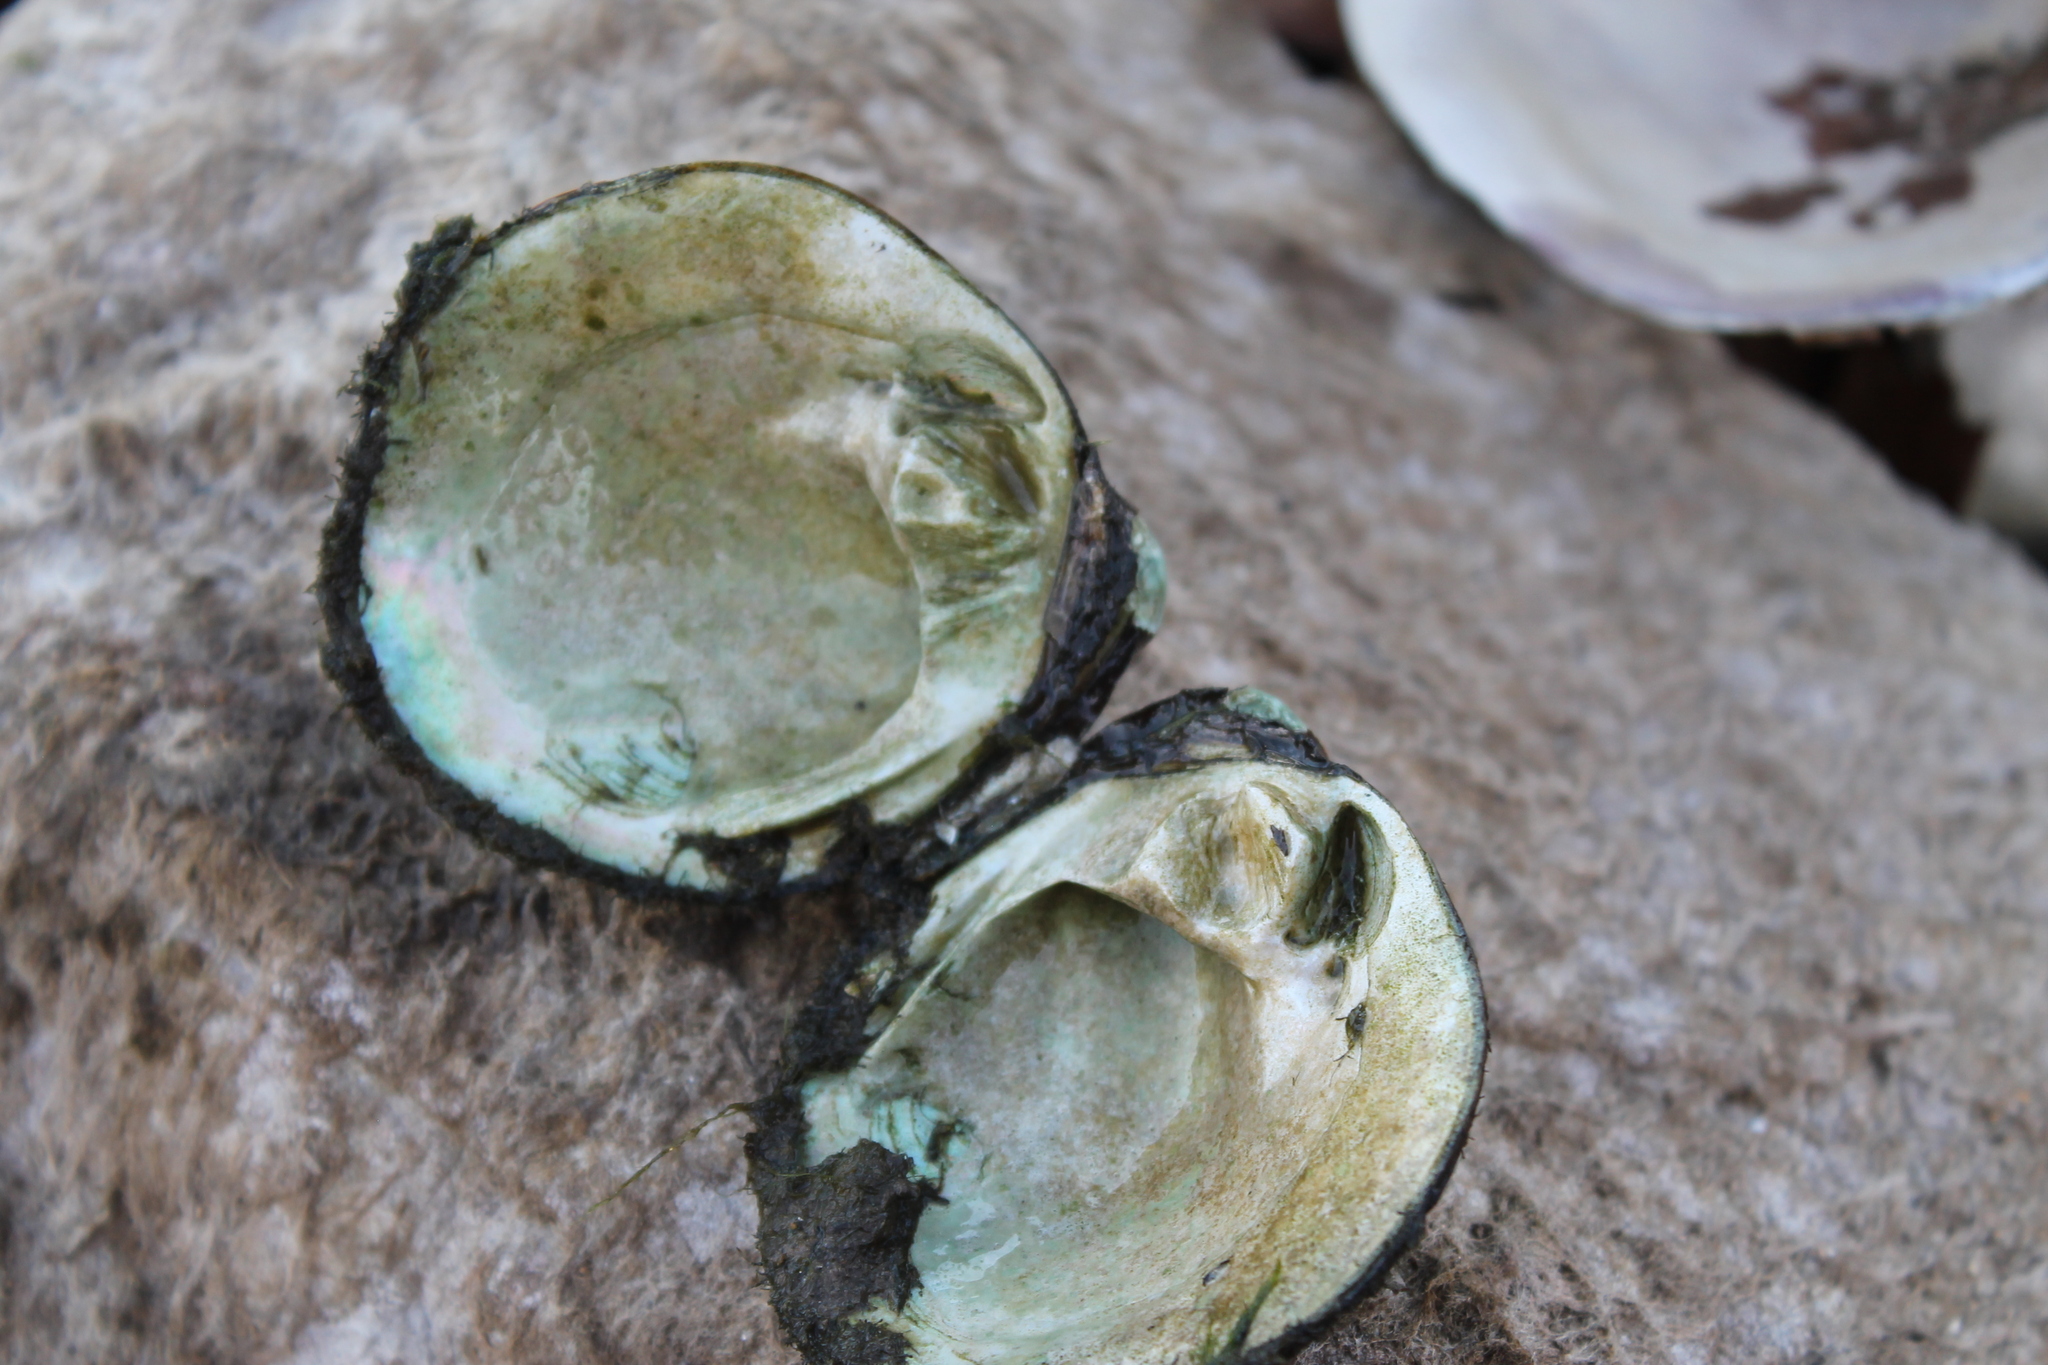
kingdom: Animalia
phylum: Mollusca
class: Bivalvia
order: Unionida
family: Unionidae
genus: Cyclonaias
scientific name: Cyclonaias pustulosa
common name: Pimpleback
